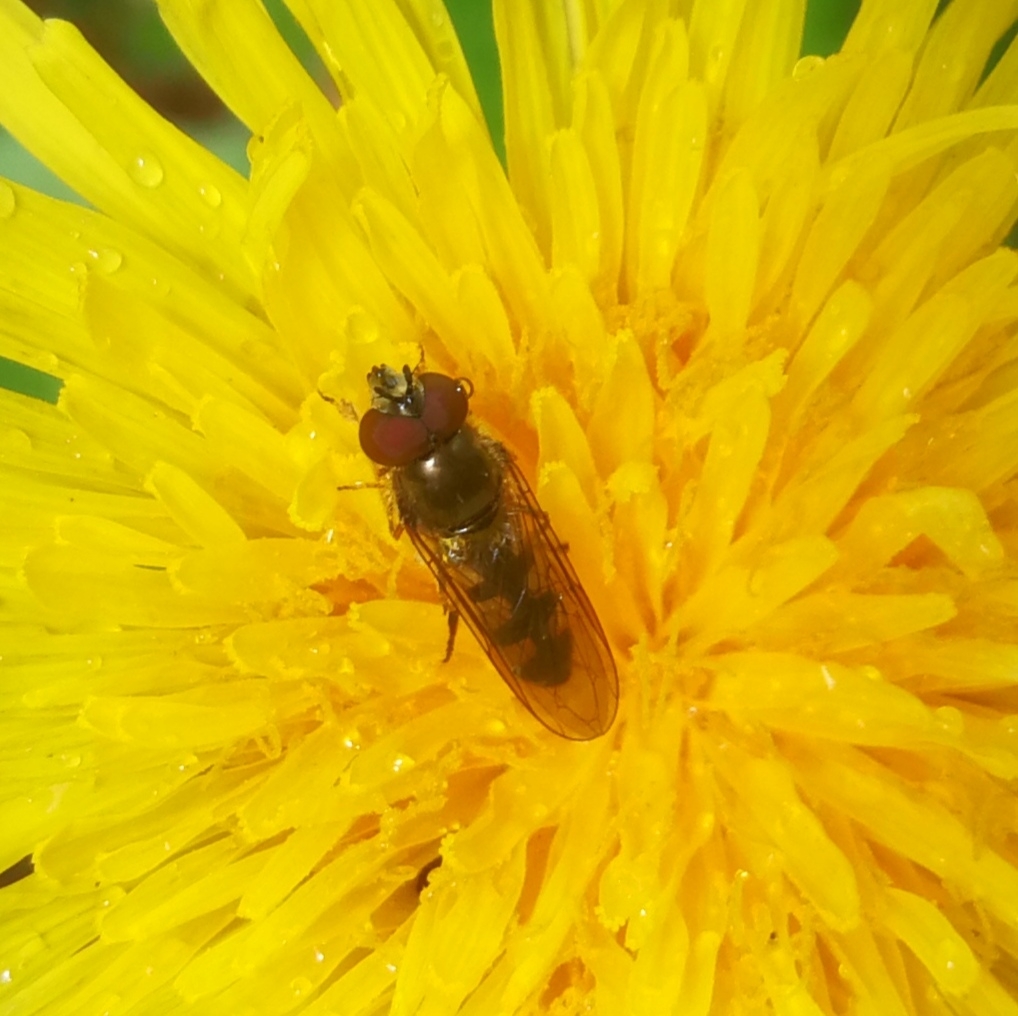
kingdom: Animalia
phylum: Arthropoda
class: Insecta
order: Diptera
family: Syrphidae
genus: Platycheirus
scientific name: Platycheirus ciliger
